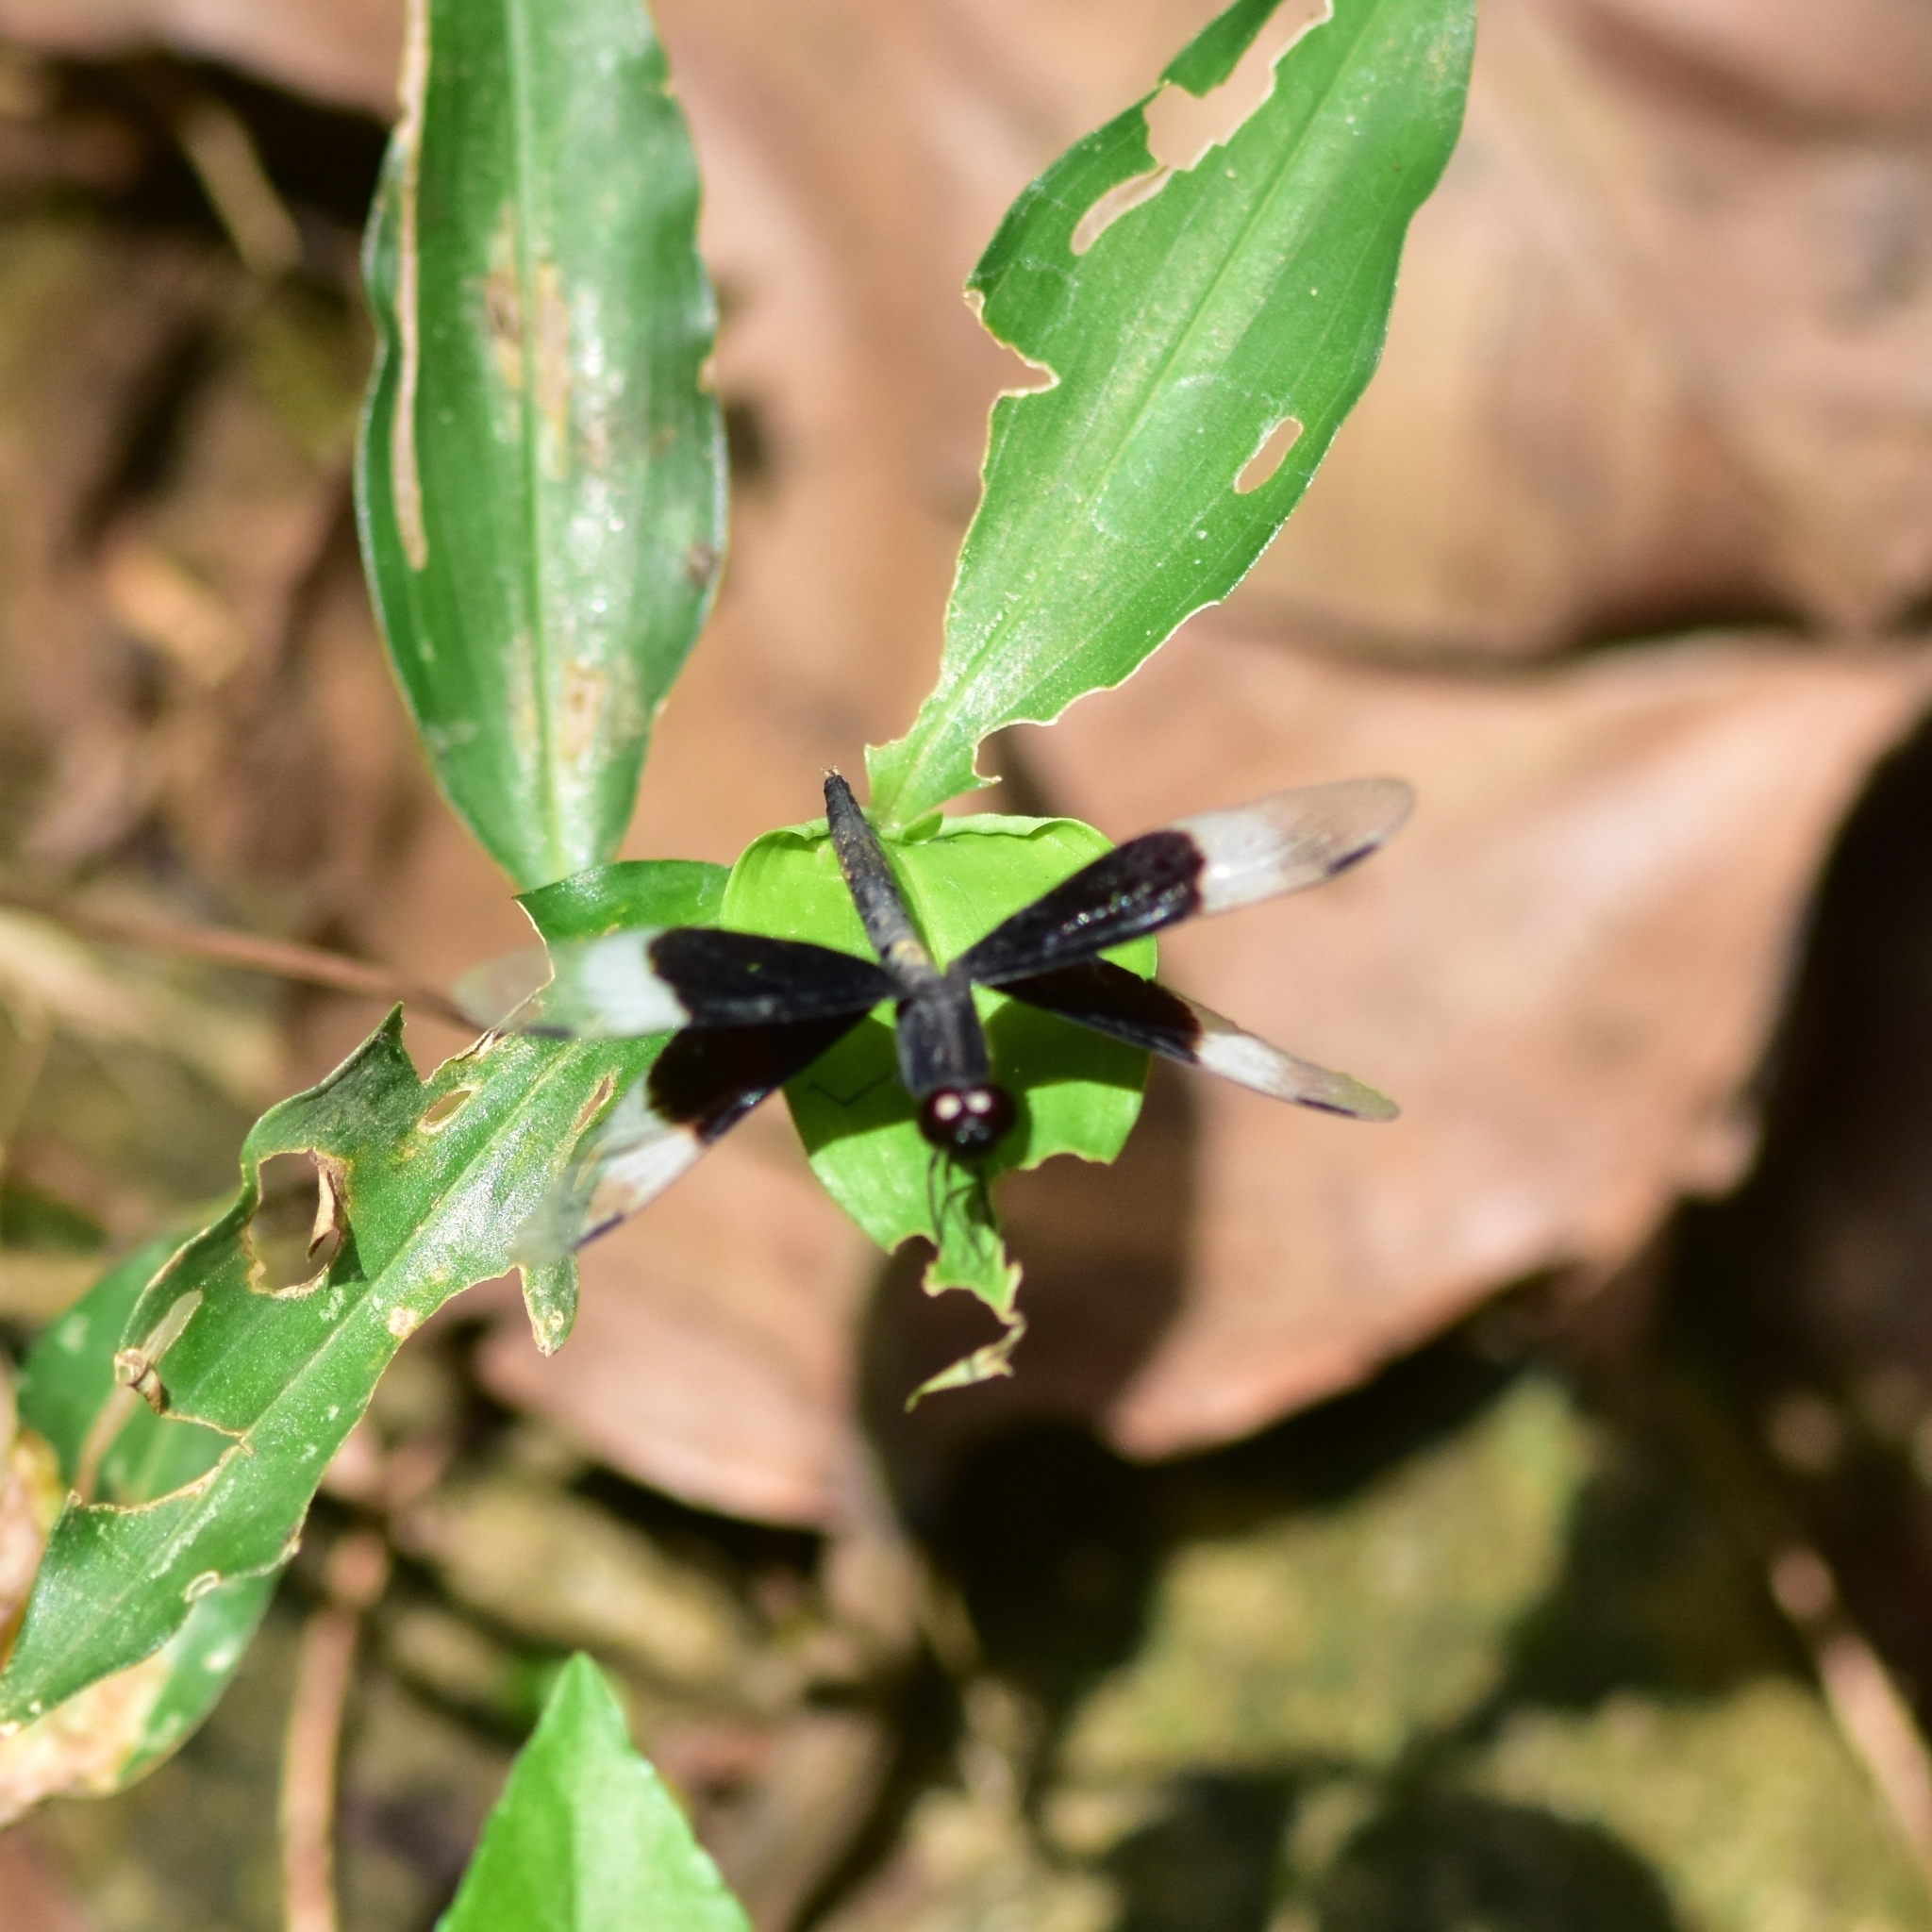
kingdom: Animalia
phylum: Arthropoda
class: Insecta
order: Odonata
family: Libellulidae
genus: Neurothemis
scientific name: Neurothemis tullia
